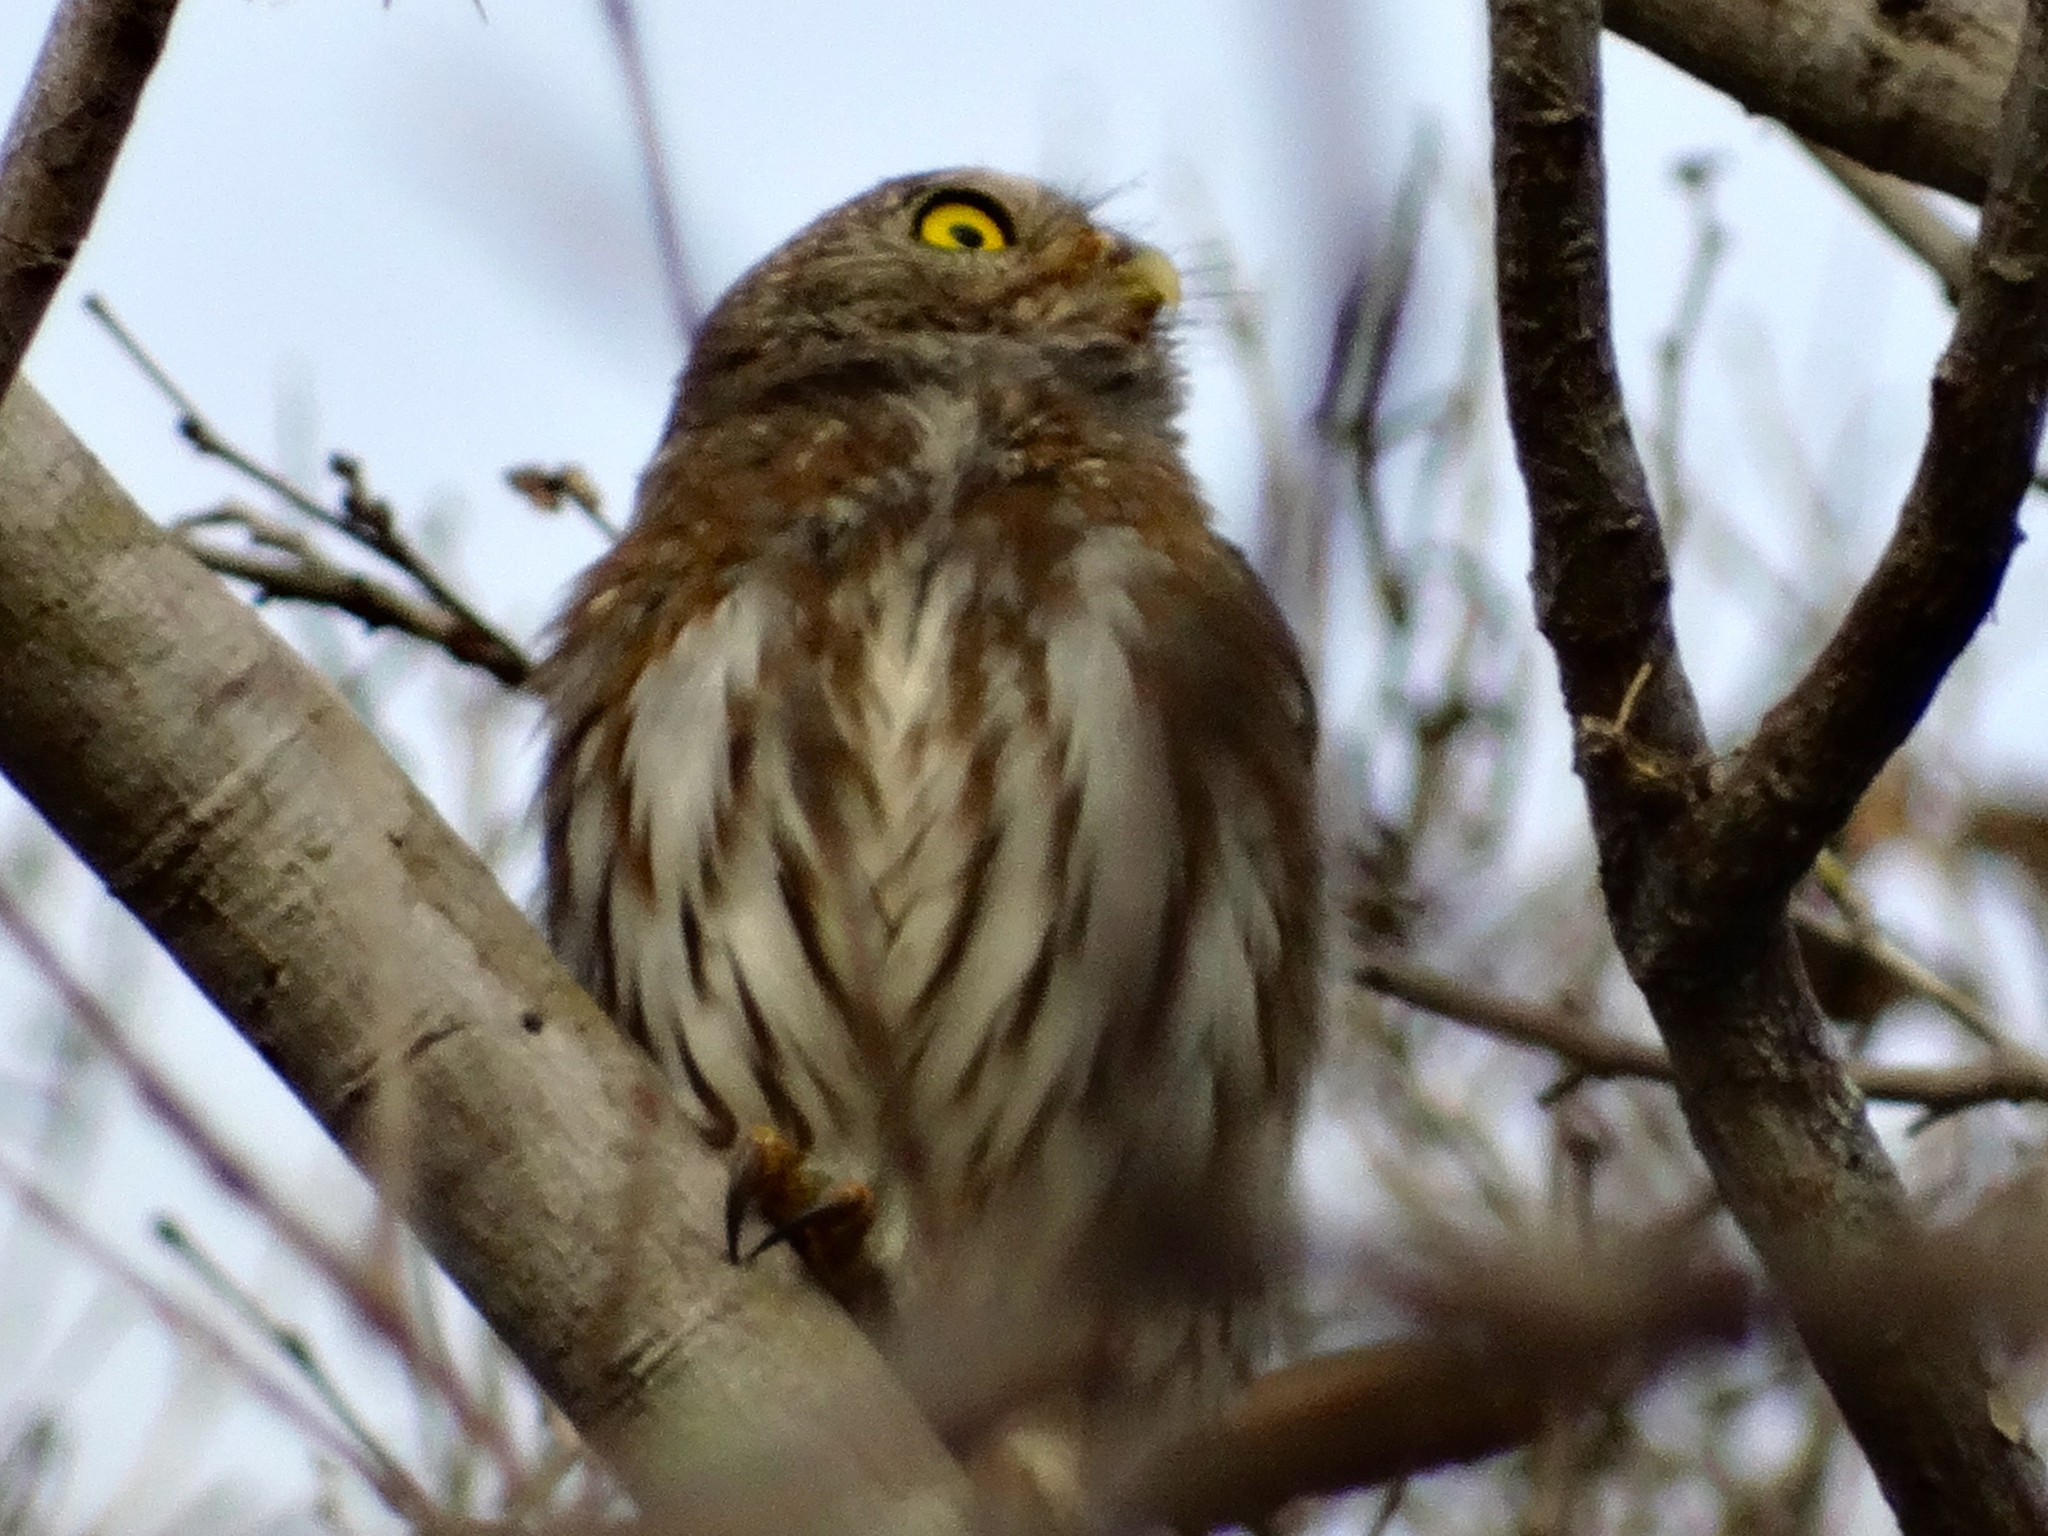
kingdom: Animalia
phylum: Chordata
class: Aves
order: Strigiformes
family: Strigidae
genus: Glaucidium
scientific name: Glaucidium brasilianum
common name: Ferruginous pygmy-owl
